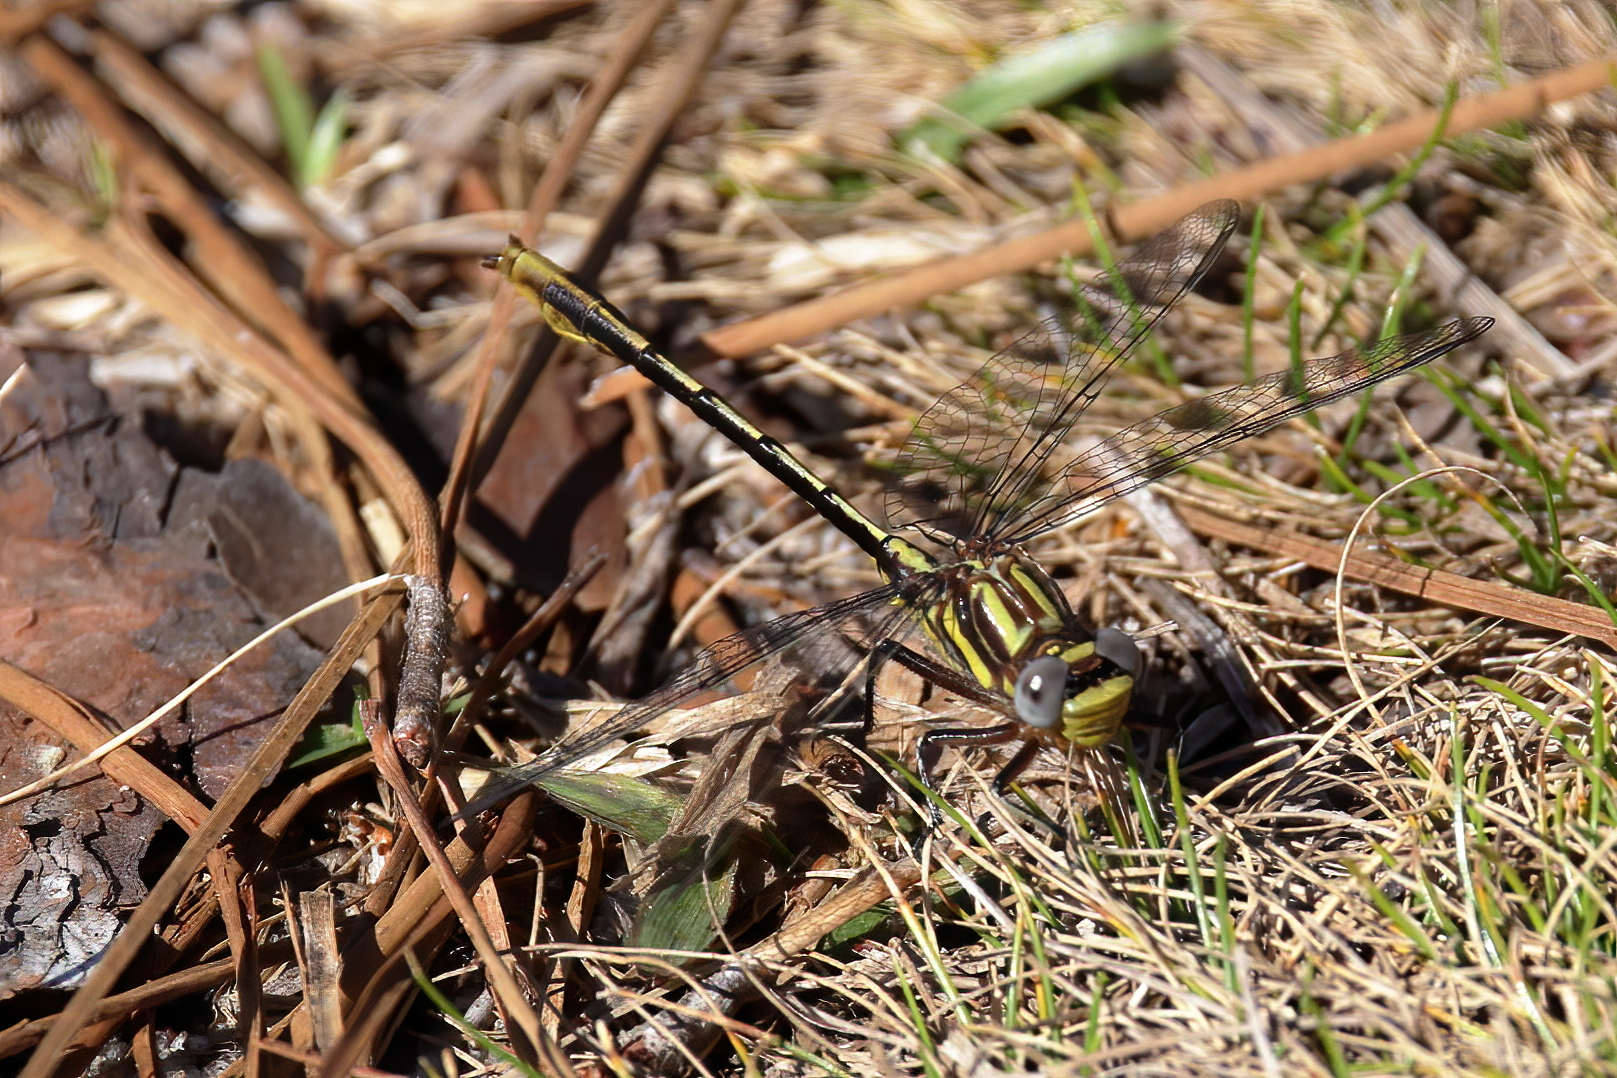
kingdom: Animalia
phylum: Arthropoda
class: Insecta
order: Odonata
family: Gomphidae
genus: Phanogomphus
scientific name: Phanogomphus exilis
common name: Lancet clubtail
